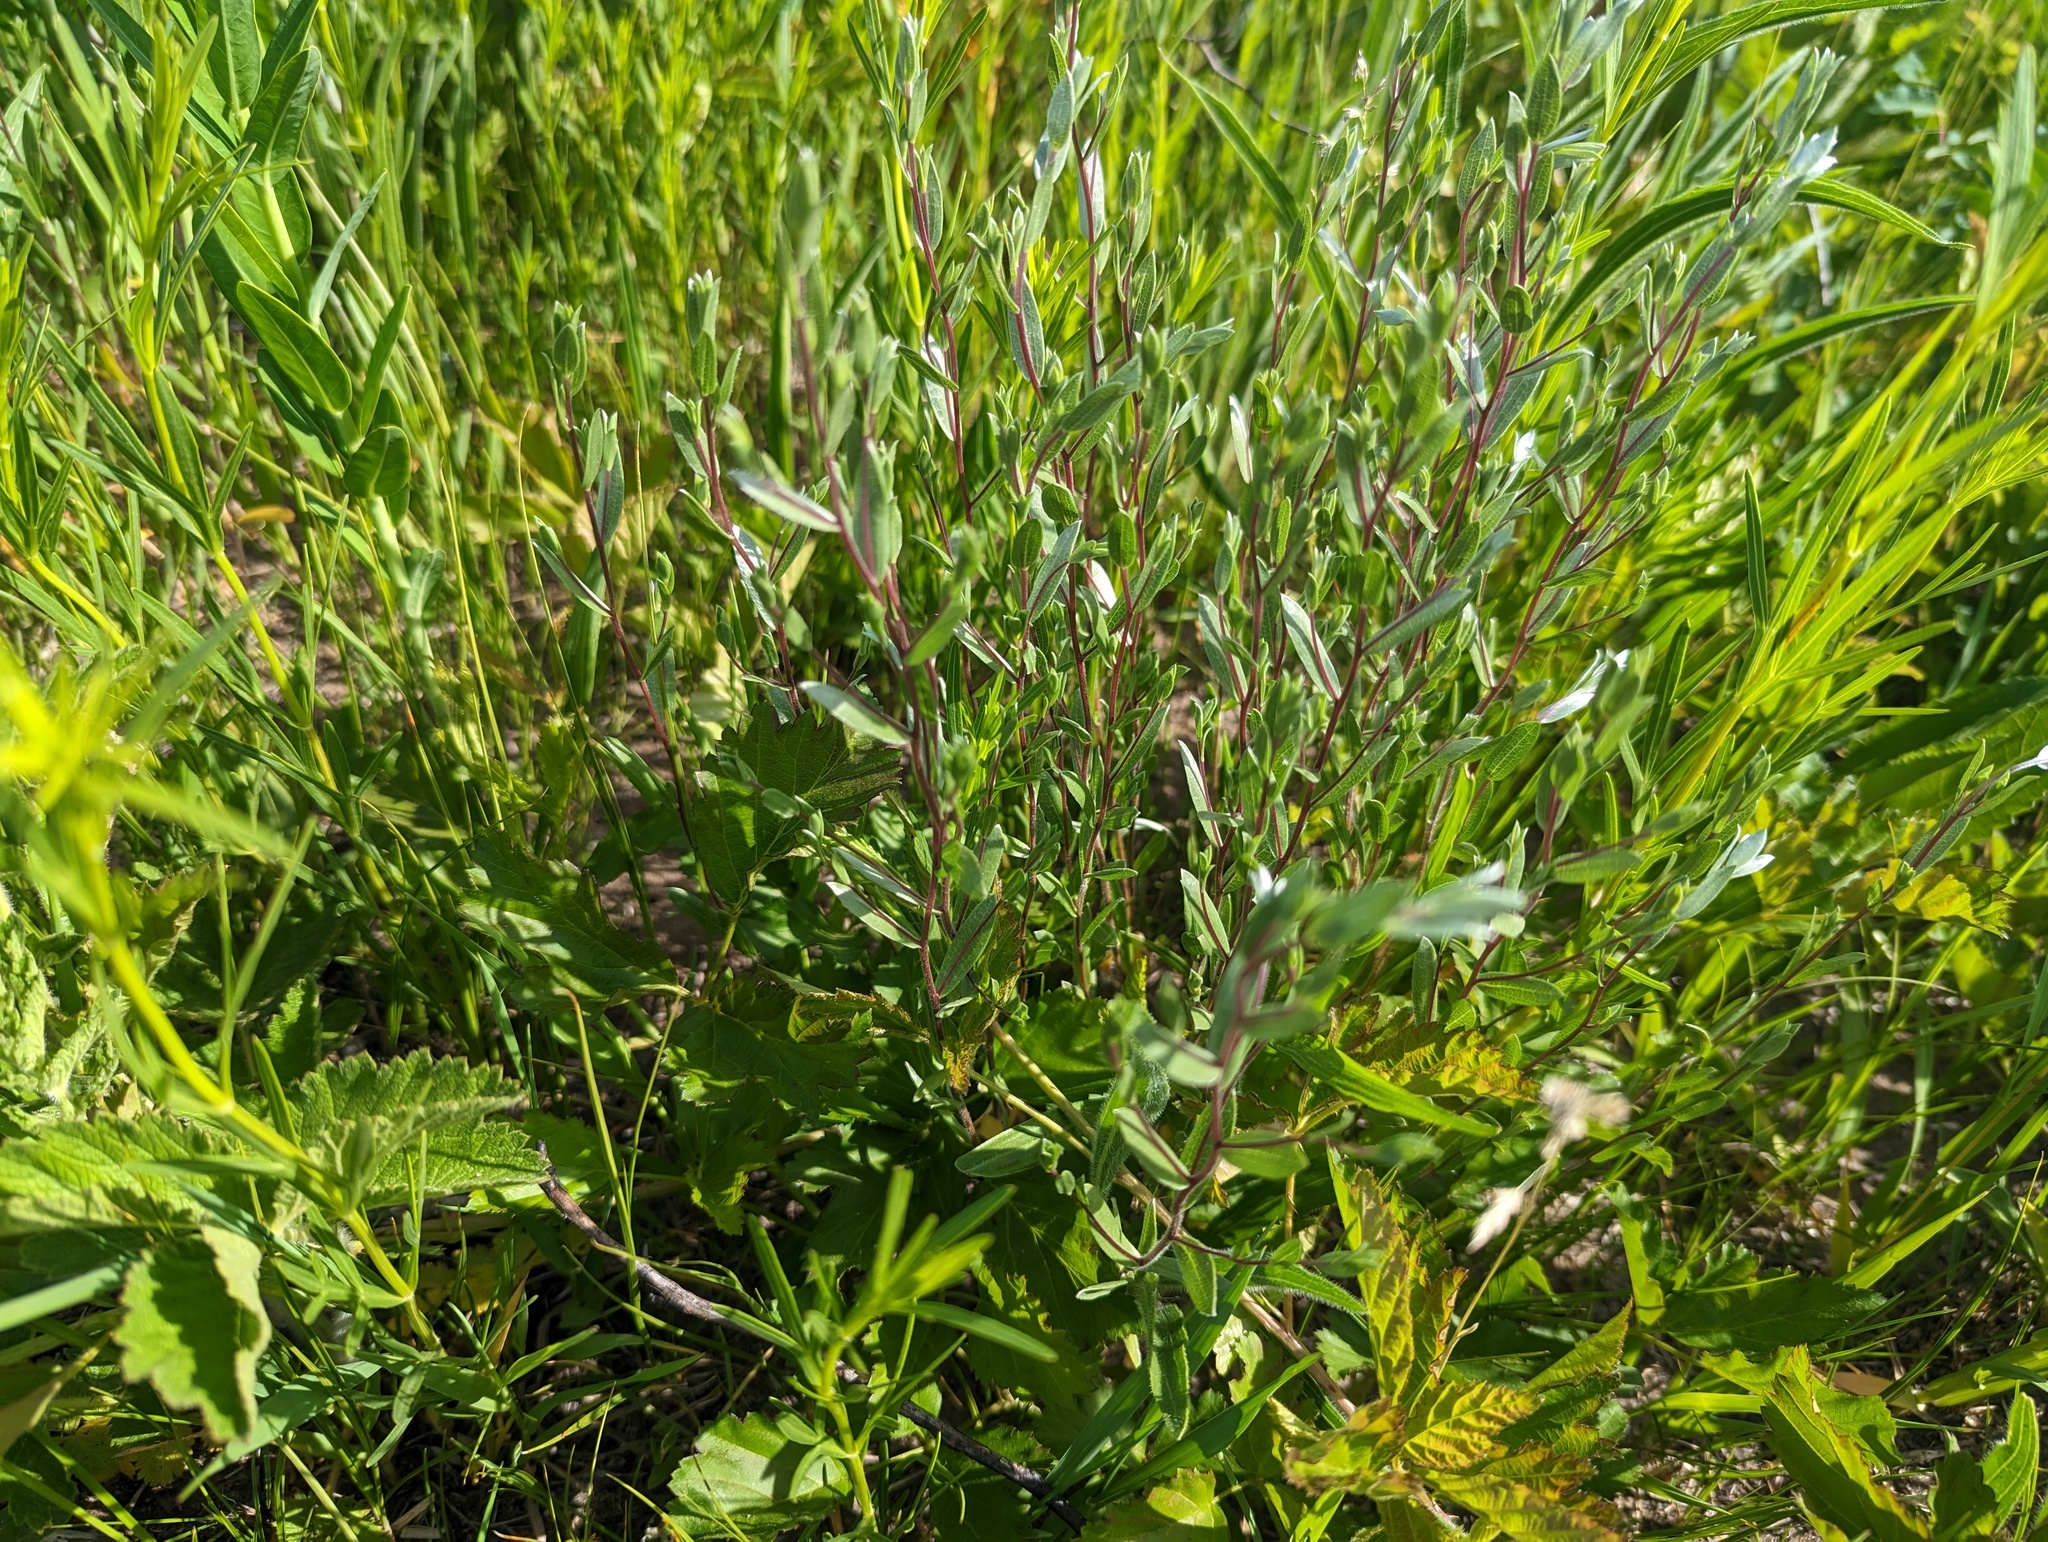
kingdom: Plantae
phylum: Tracheophyta
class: Magnoliopsida
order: Asterales
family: Asteraceae
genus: Symphyotrichum
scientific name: Symphyotrichum sericeum
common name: Silky aster
